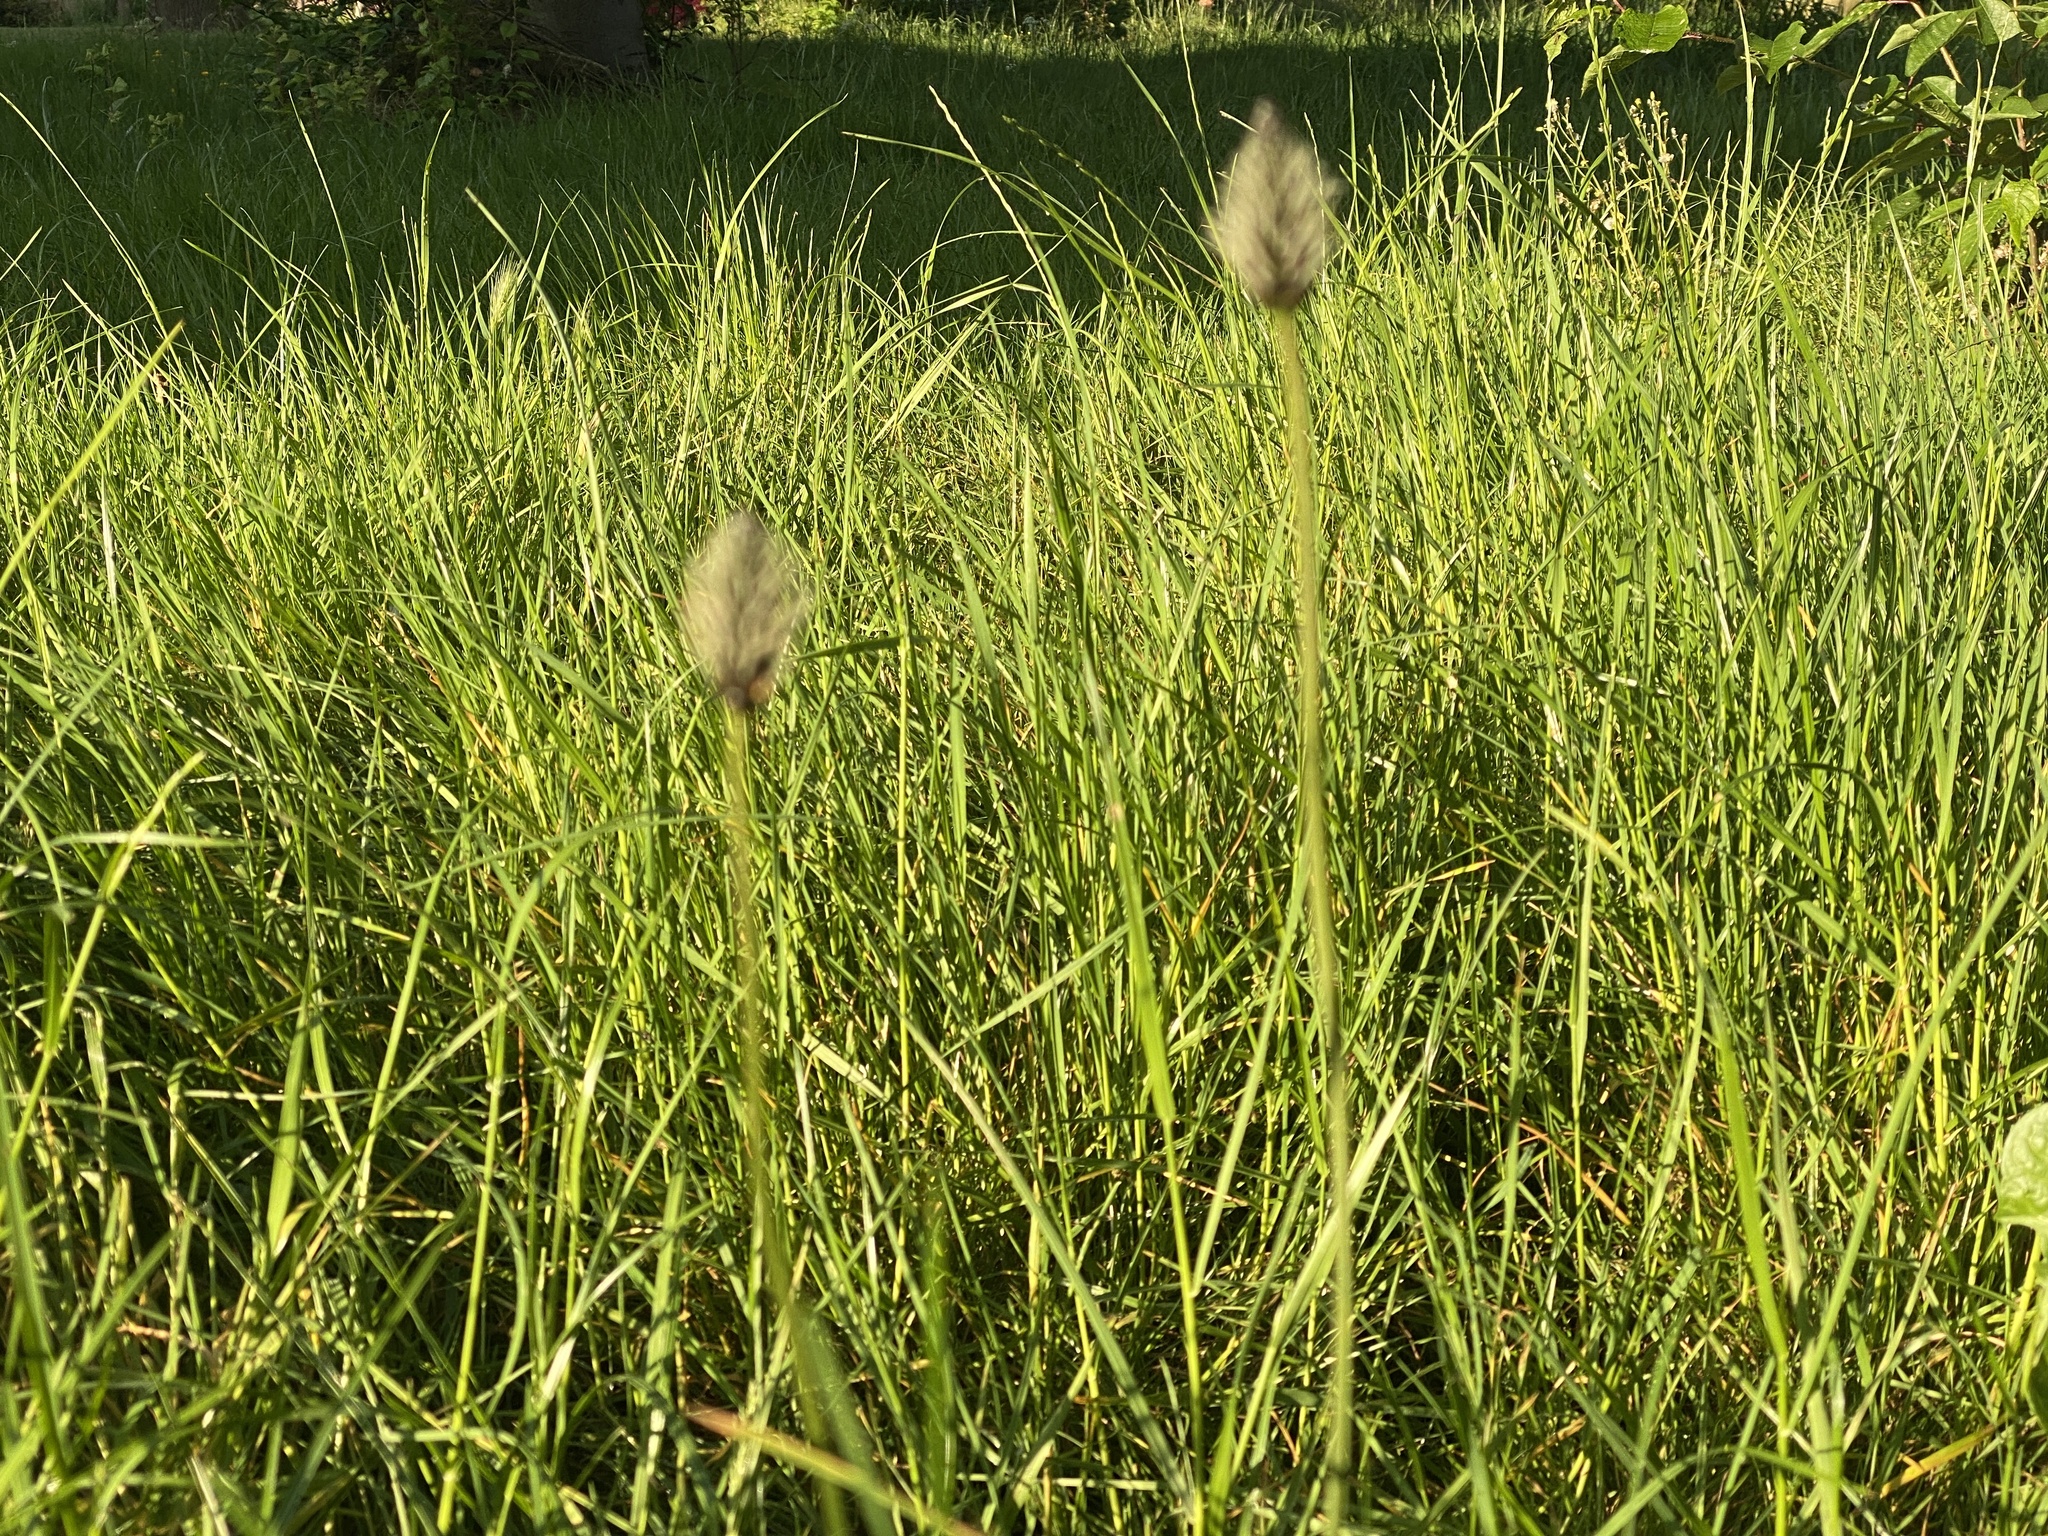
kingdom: Plantae
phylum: Tracheophyta
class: Magnoliopsida
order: Lamiales
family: Plantaginaceae
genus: Plantago
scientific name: Plantago lanceolata
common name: Ribwort plantain
